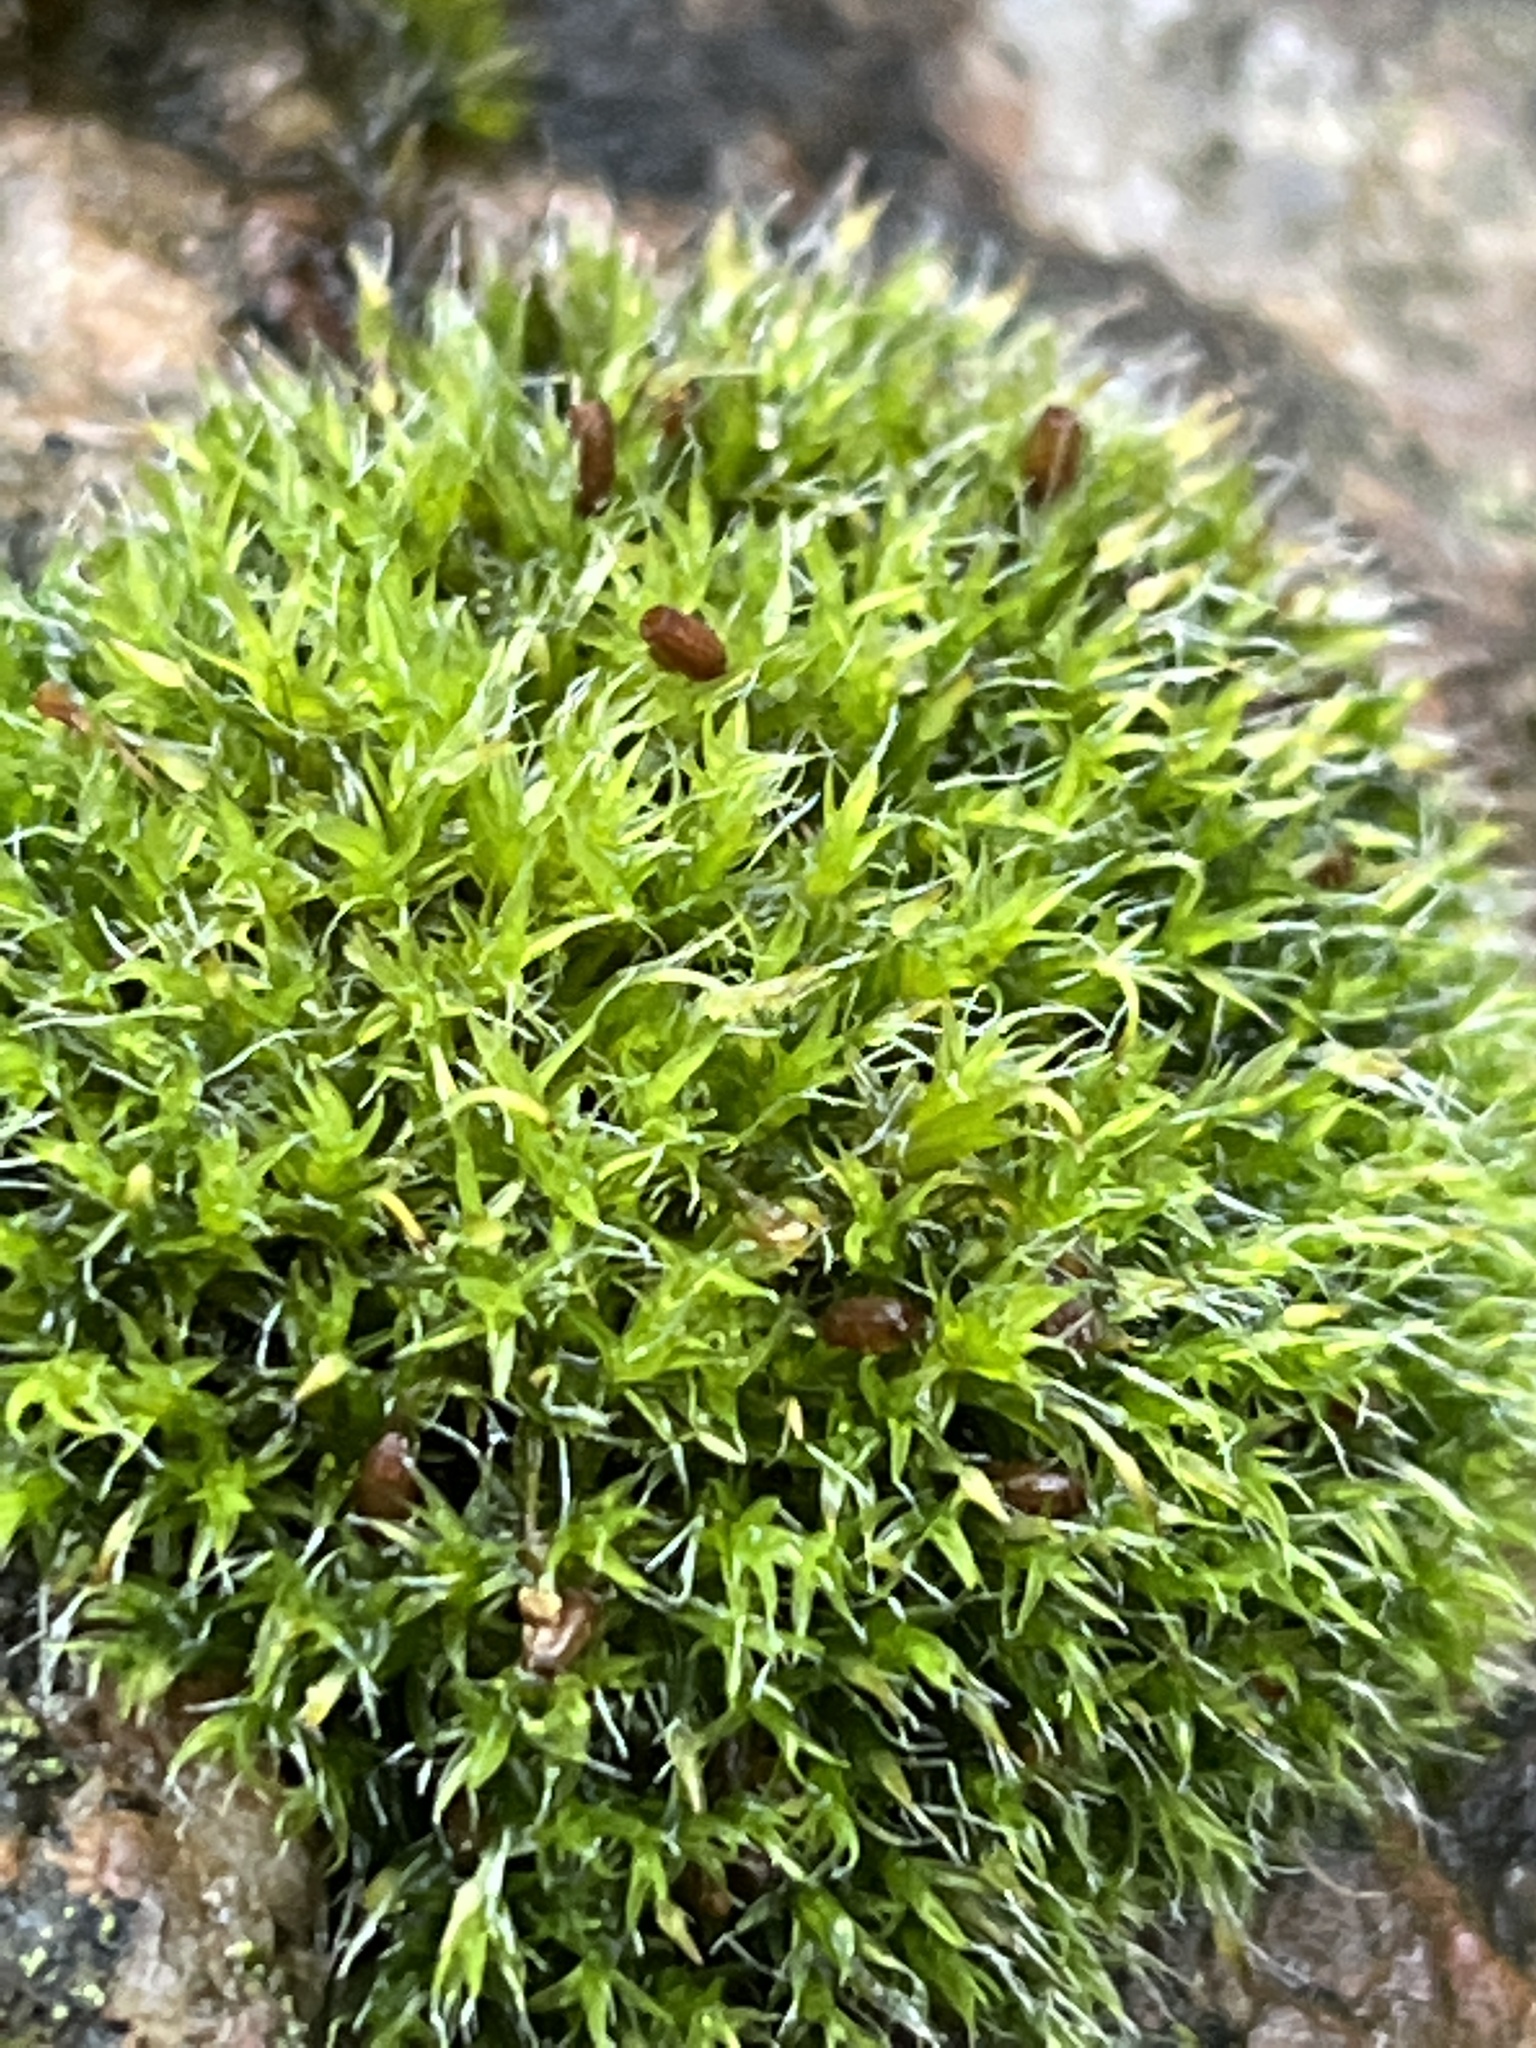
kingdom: Plantae
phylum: Bryophyta
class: Bryopsida
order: Grimmiales
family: Grimmiaceae
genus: Grimmia
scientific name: Grimmia pulvinata
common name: Grey-cushioned grimmia
